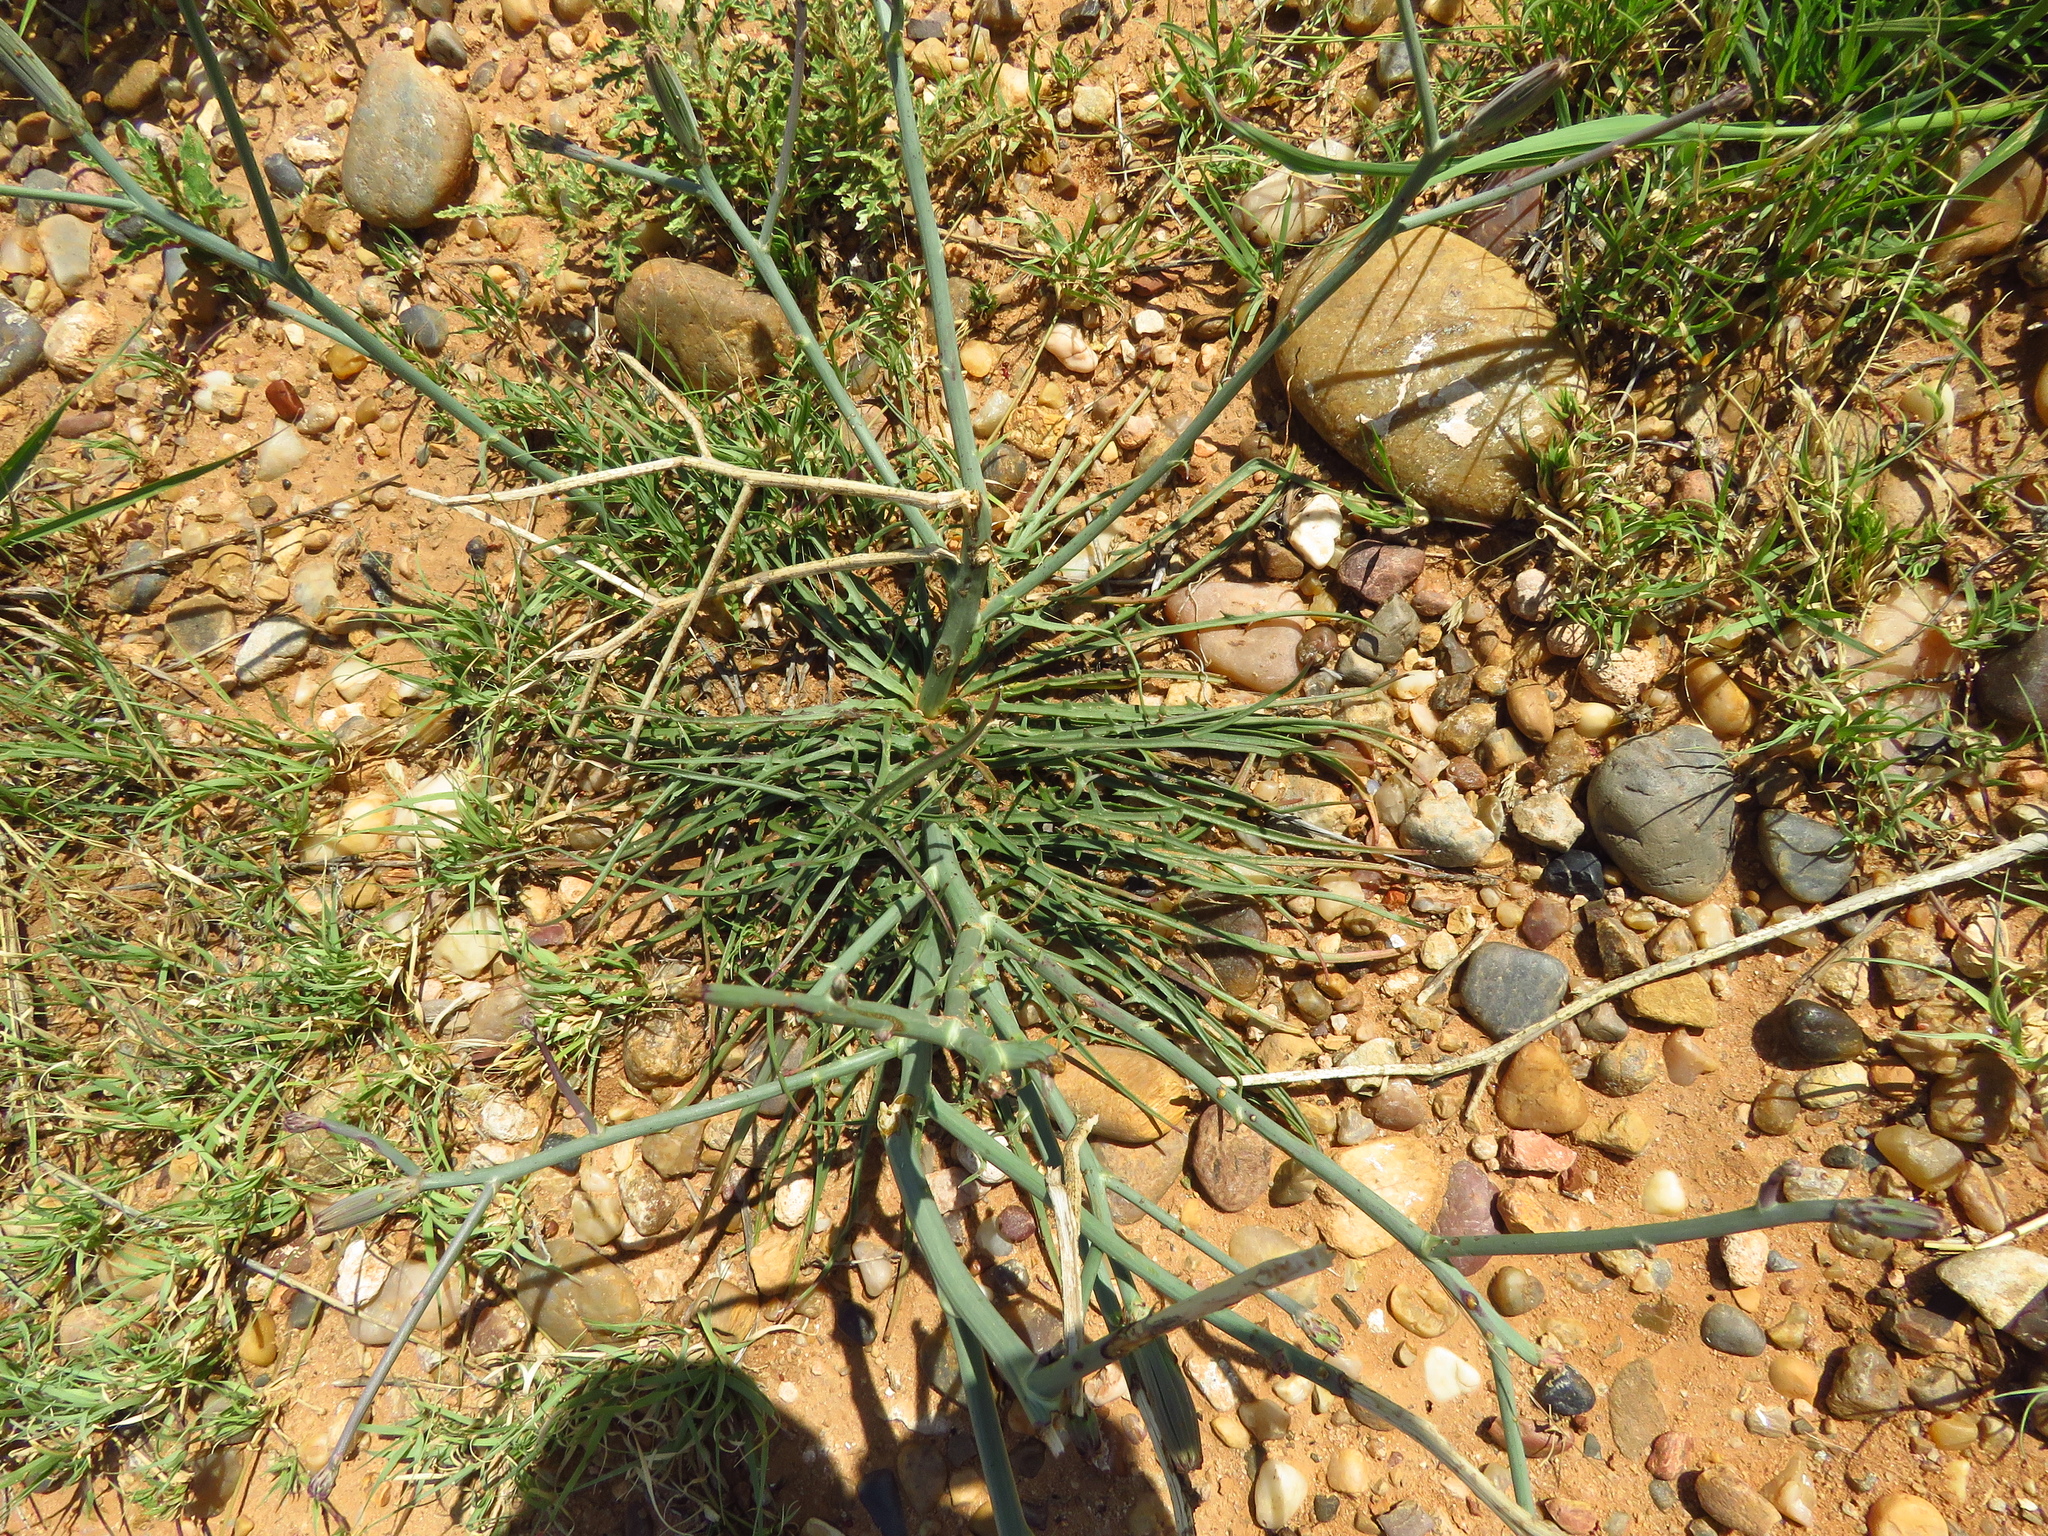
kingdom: Plantae
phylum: Tracheophyta
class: Magnoliopsida
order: Asterales
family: Asteraceae
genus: Lygodesmia
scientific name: Lygodesmia texana
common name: Texas skeleton-plant
